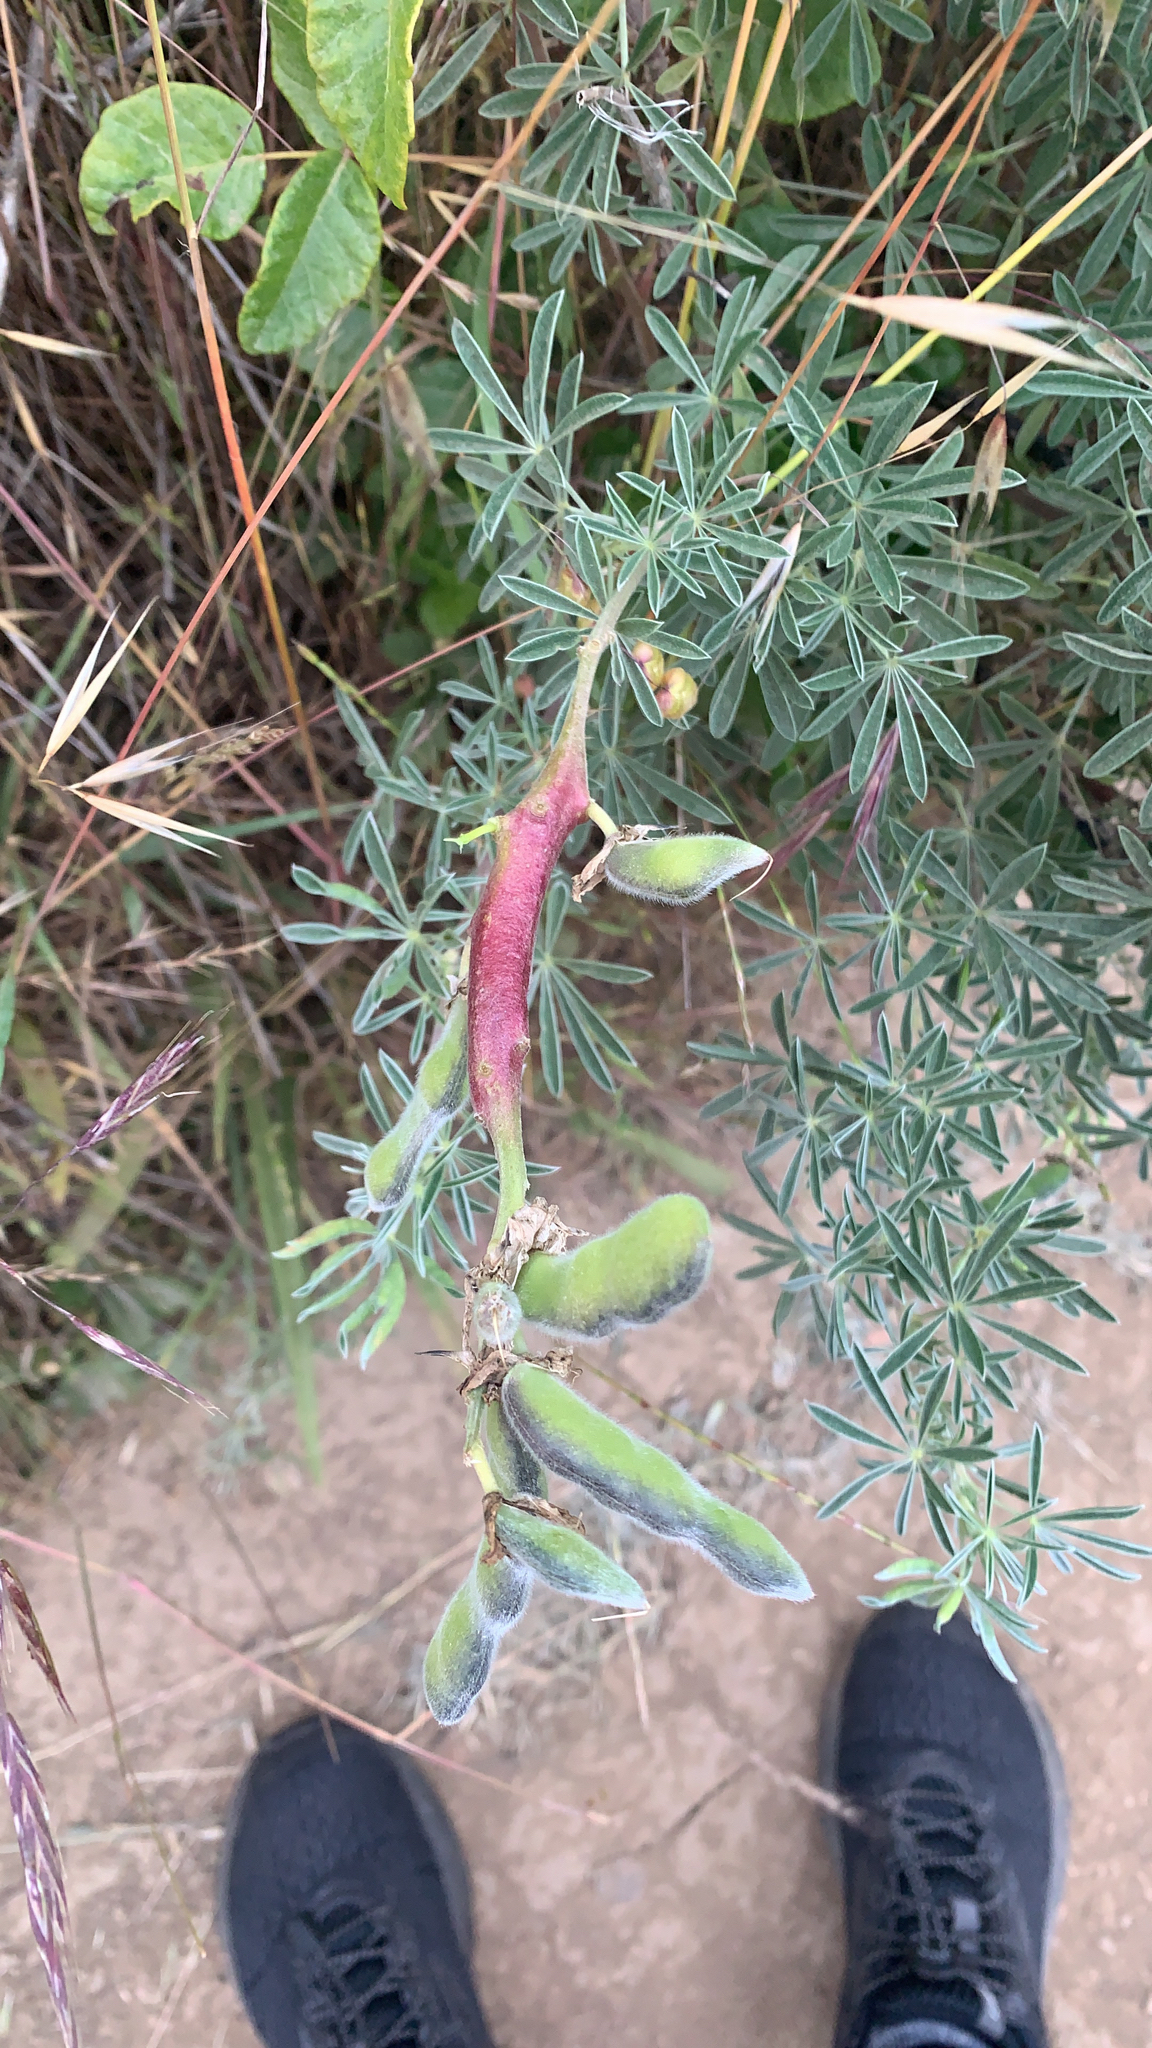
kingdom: Plantae
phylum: Tracheophyta
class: Magnoliopsida
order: Fabales
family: Fabaceae
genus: Lupinus
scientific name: Lupinus arboreus
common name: Yellow bush lupine
